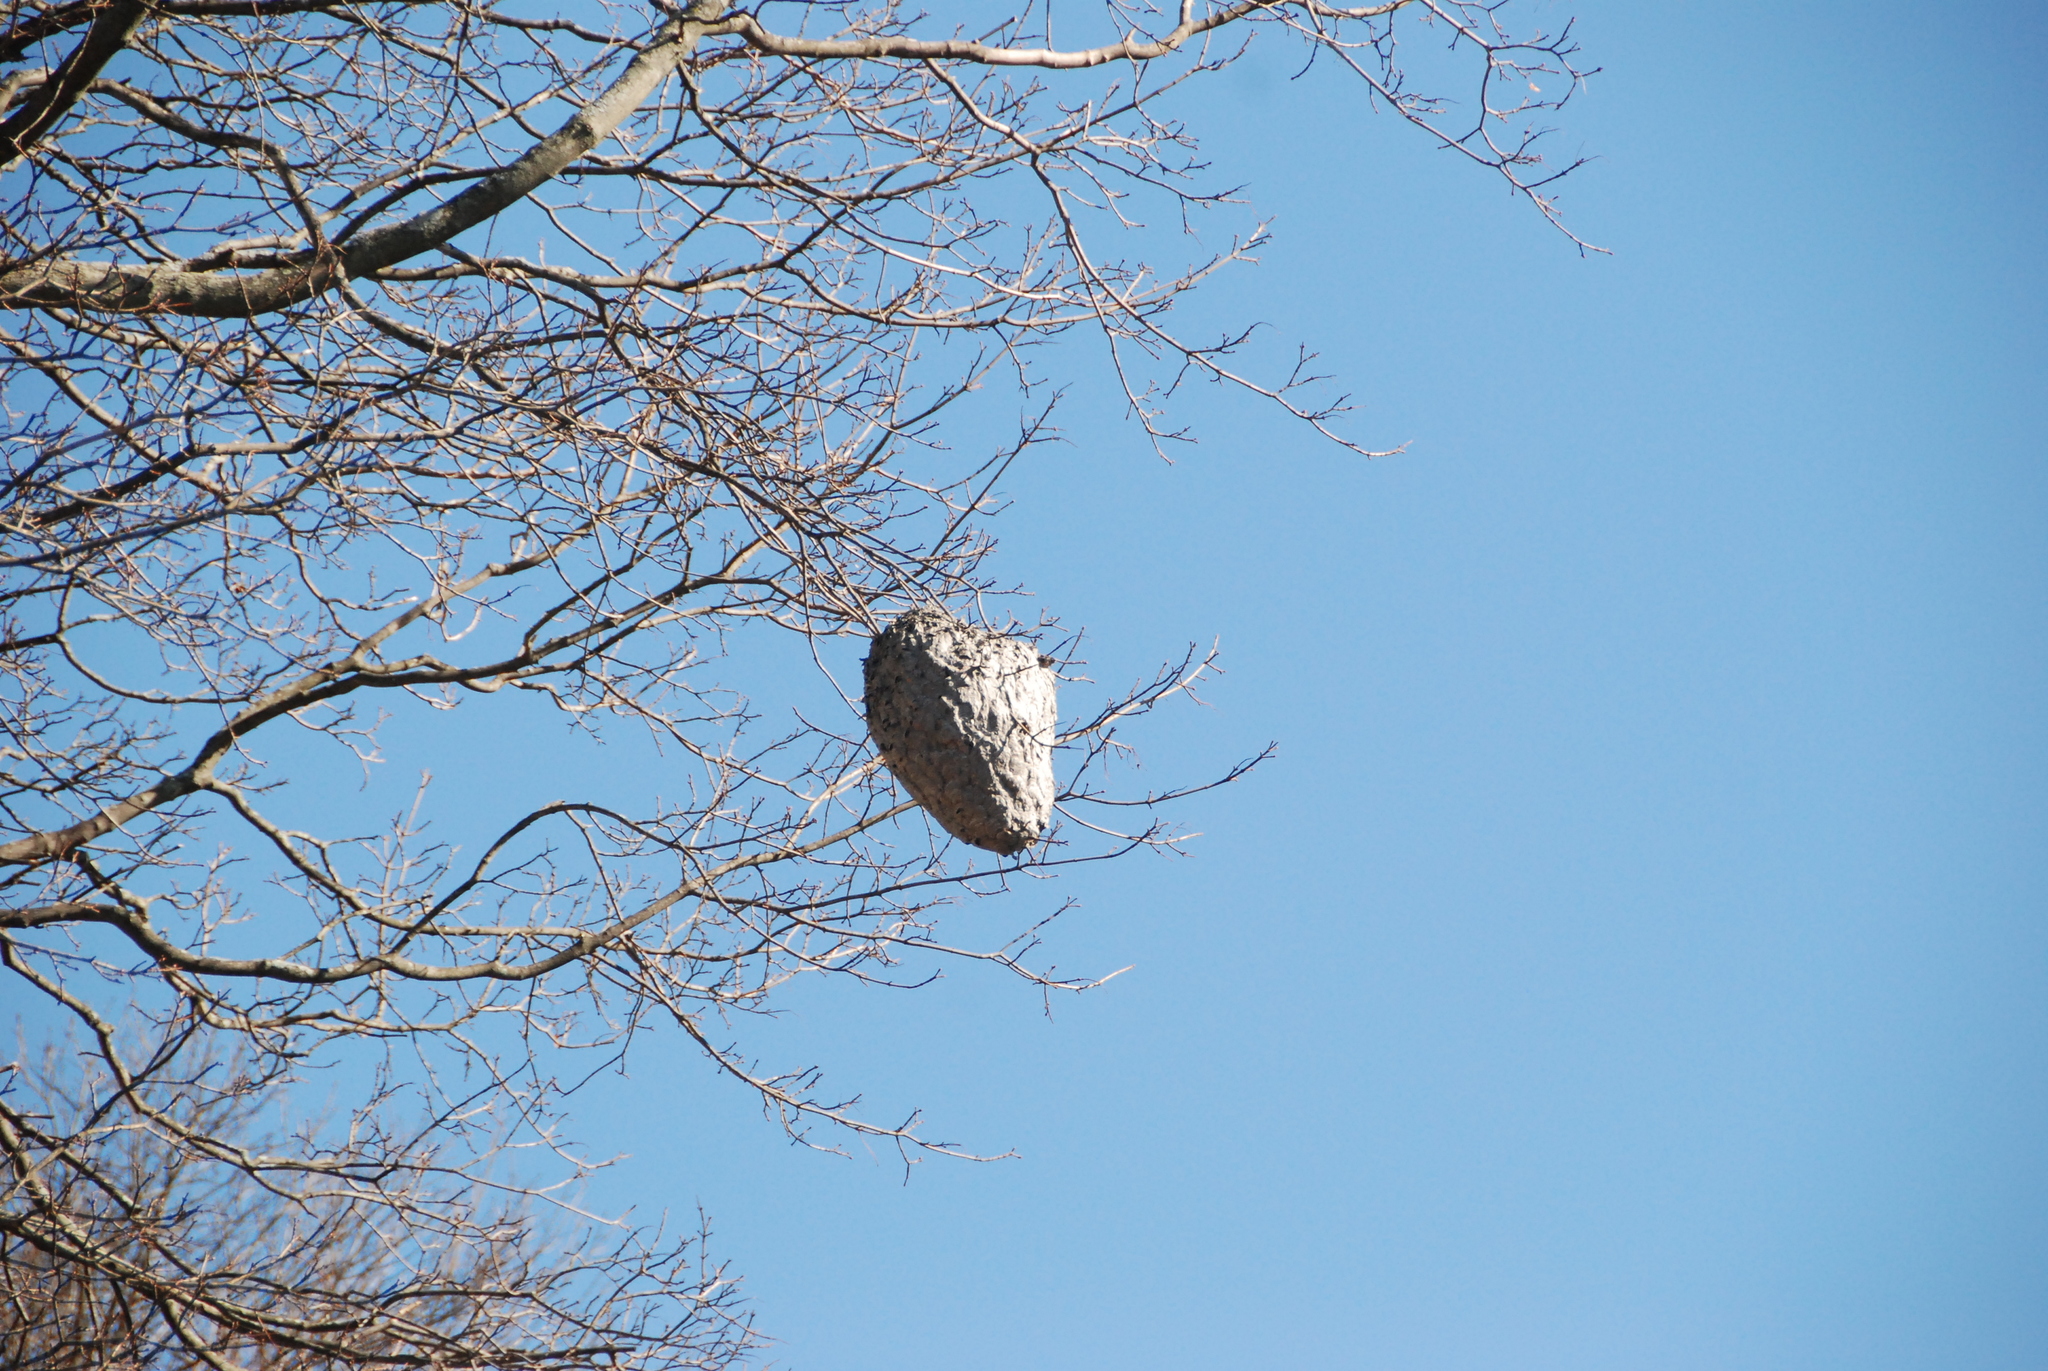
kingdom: Animalia
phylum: Arthropoda
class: Insecta
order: Hymenoptera
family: Vespidae
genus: Dolichovespula
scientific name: Dolichovespula
